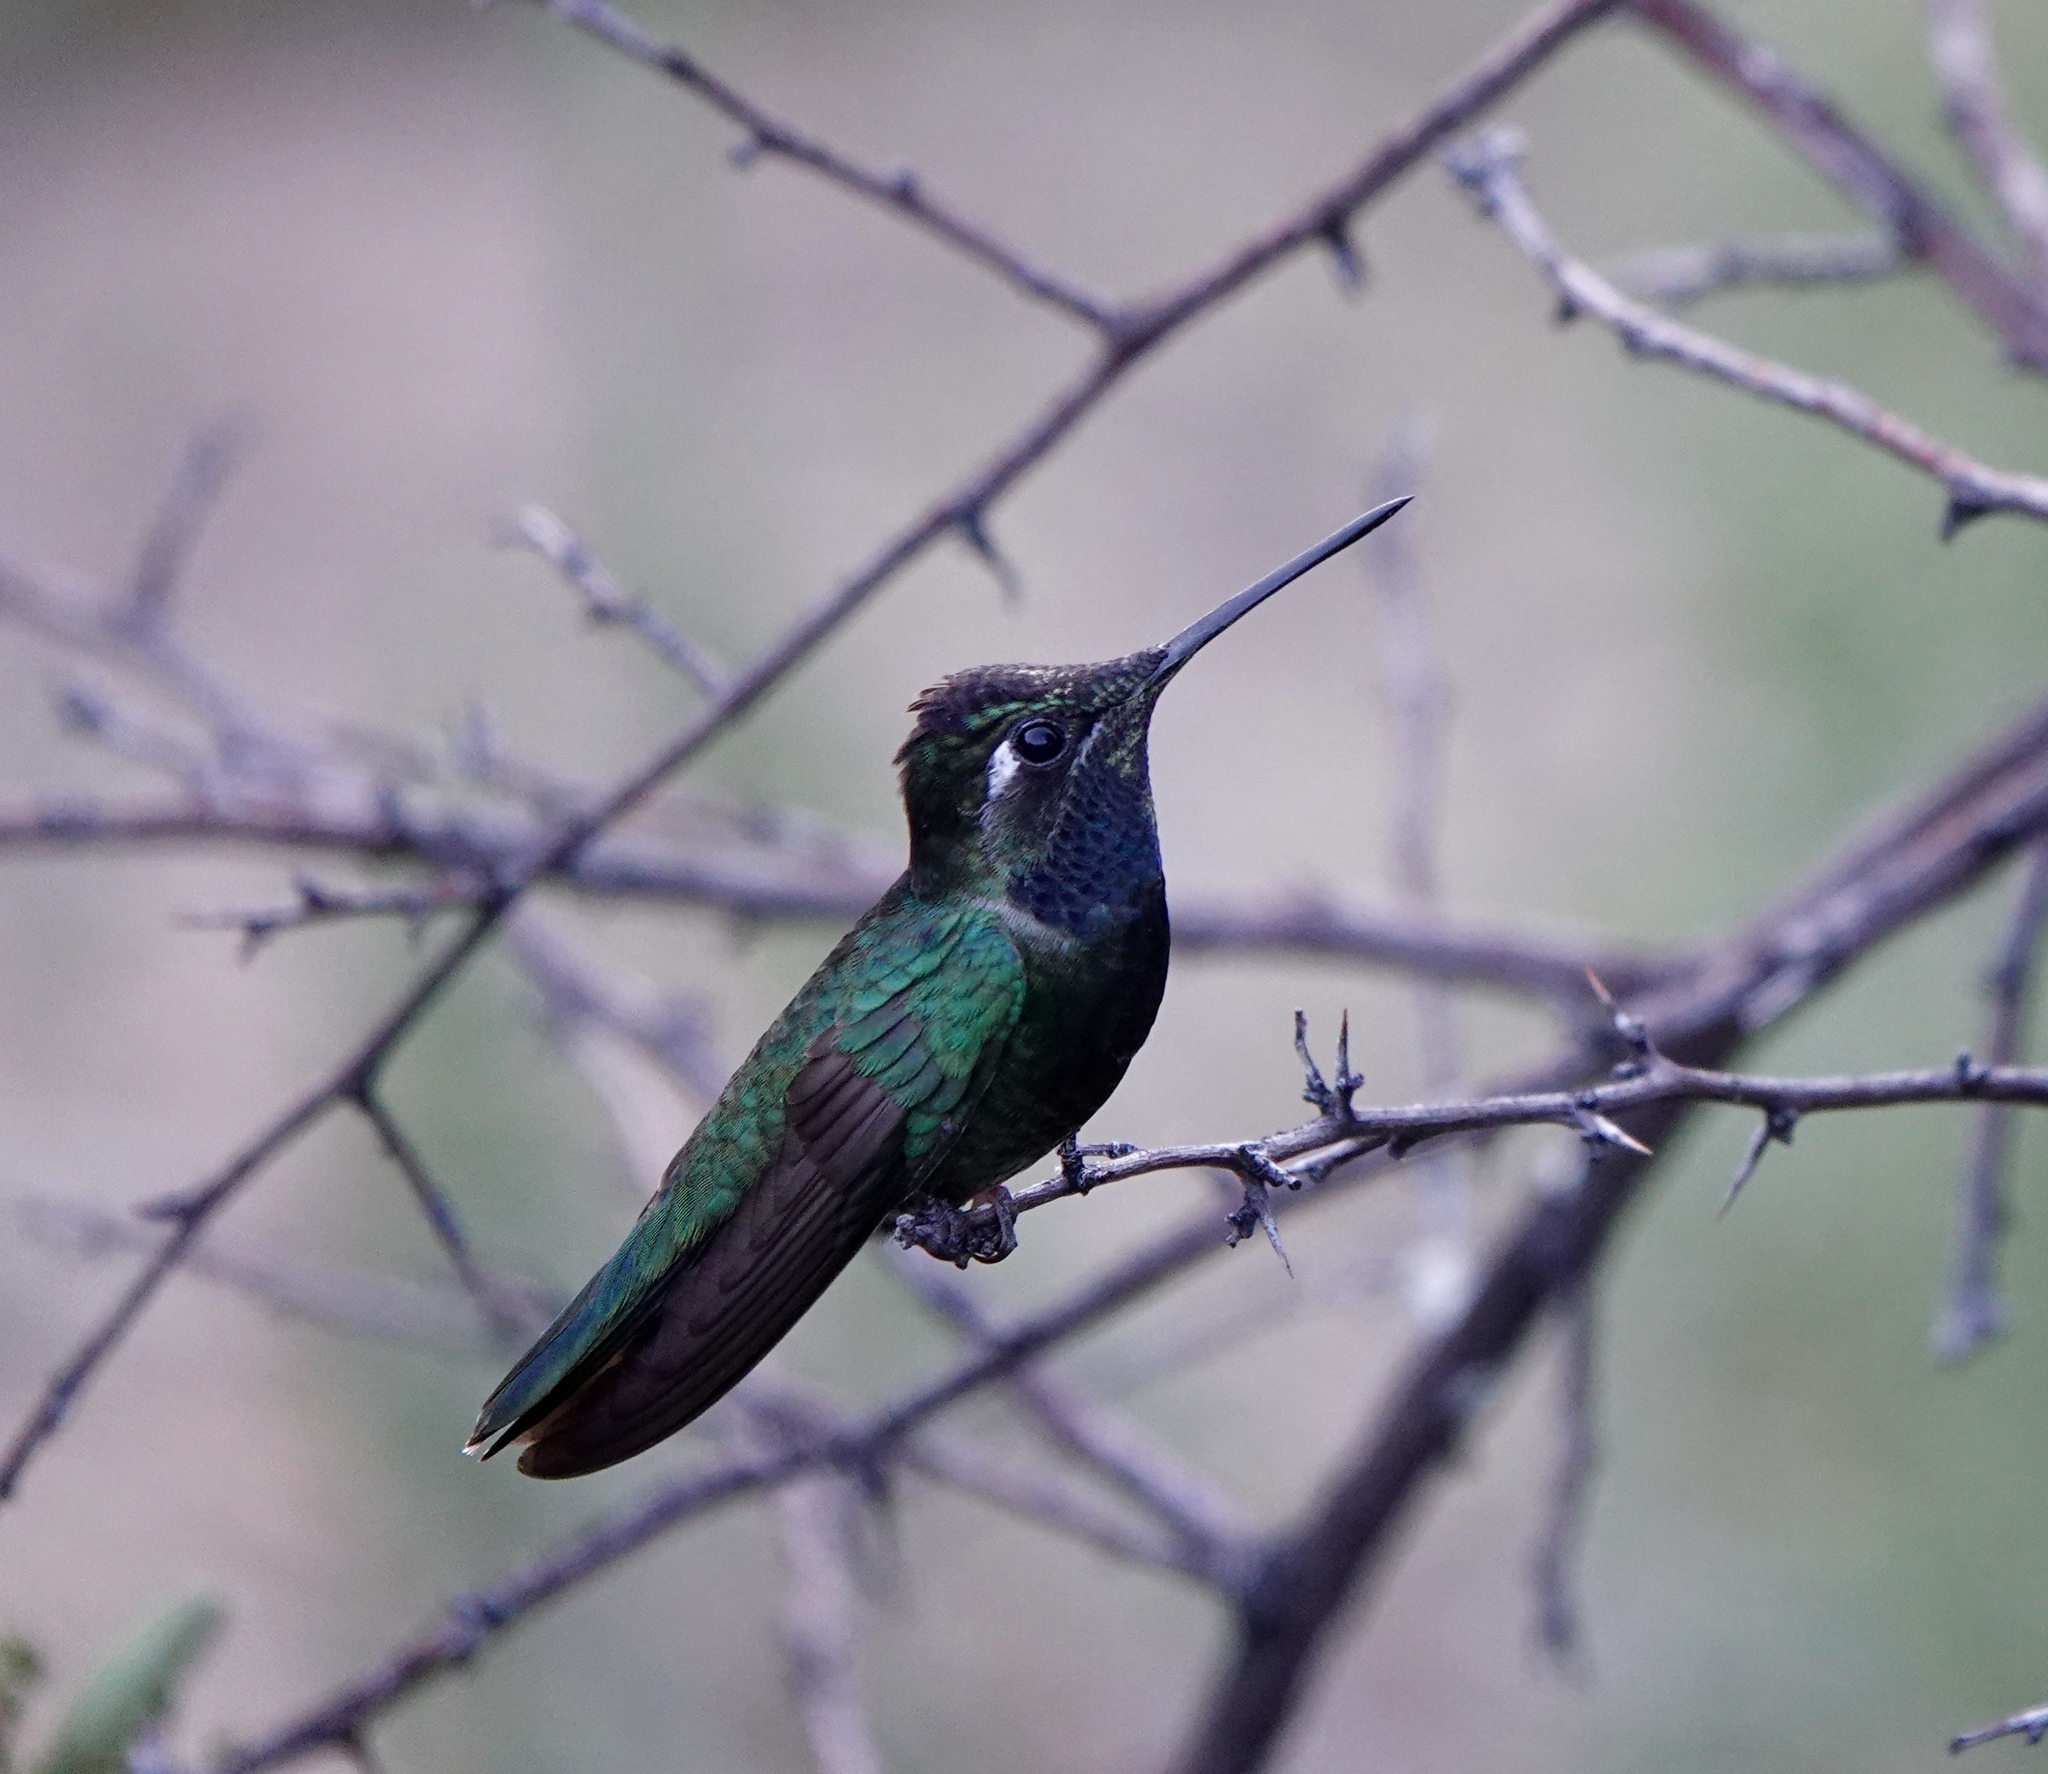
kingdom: Animalia
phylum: Chordata
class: Aves
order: Apodiformes
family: Trochilidae
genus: Eugenes
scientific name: Eugenes fulgens
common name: Magnificent hummingbird
